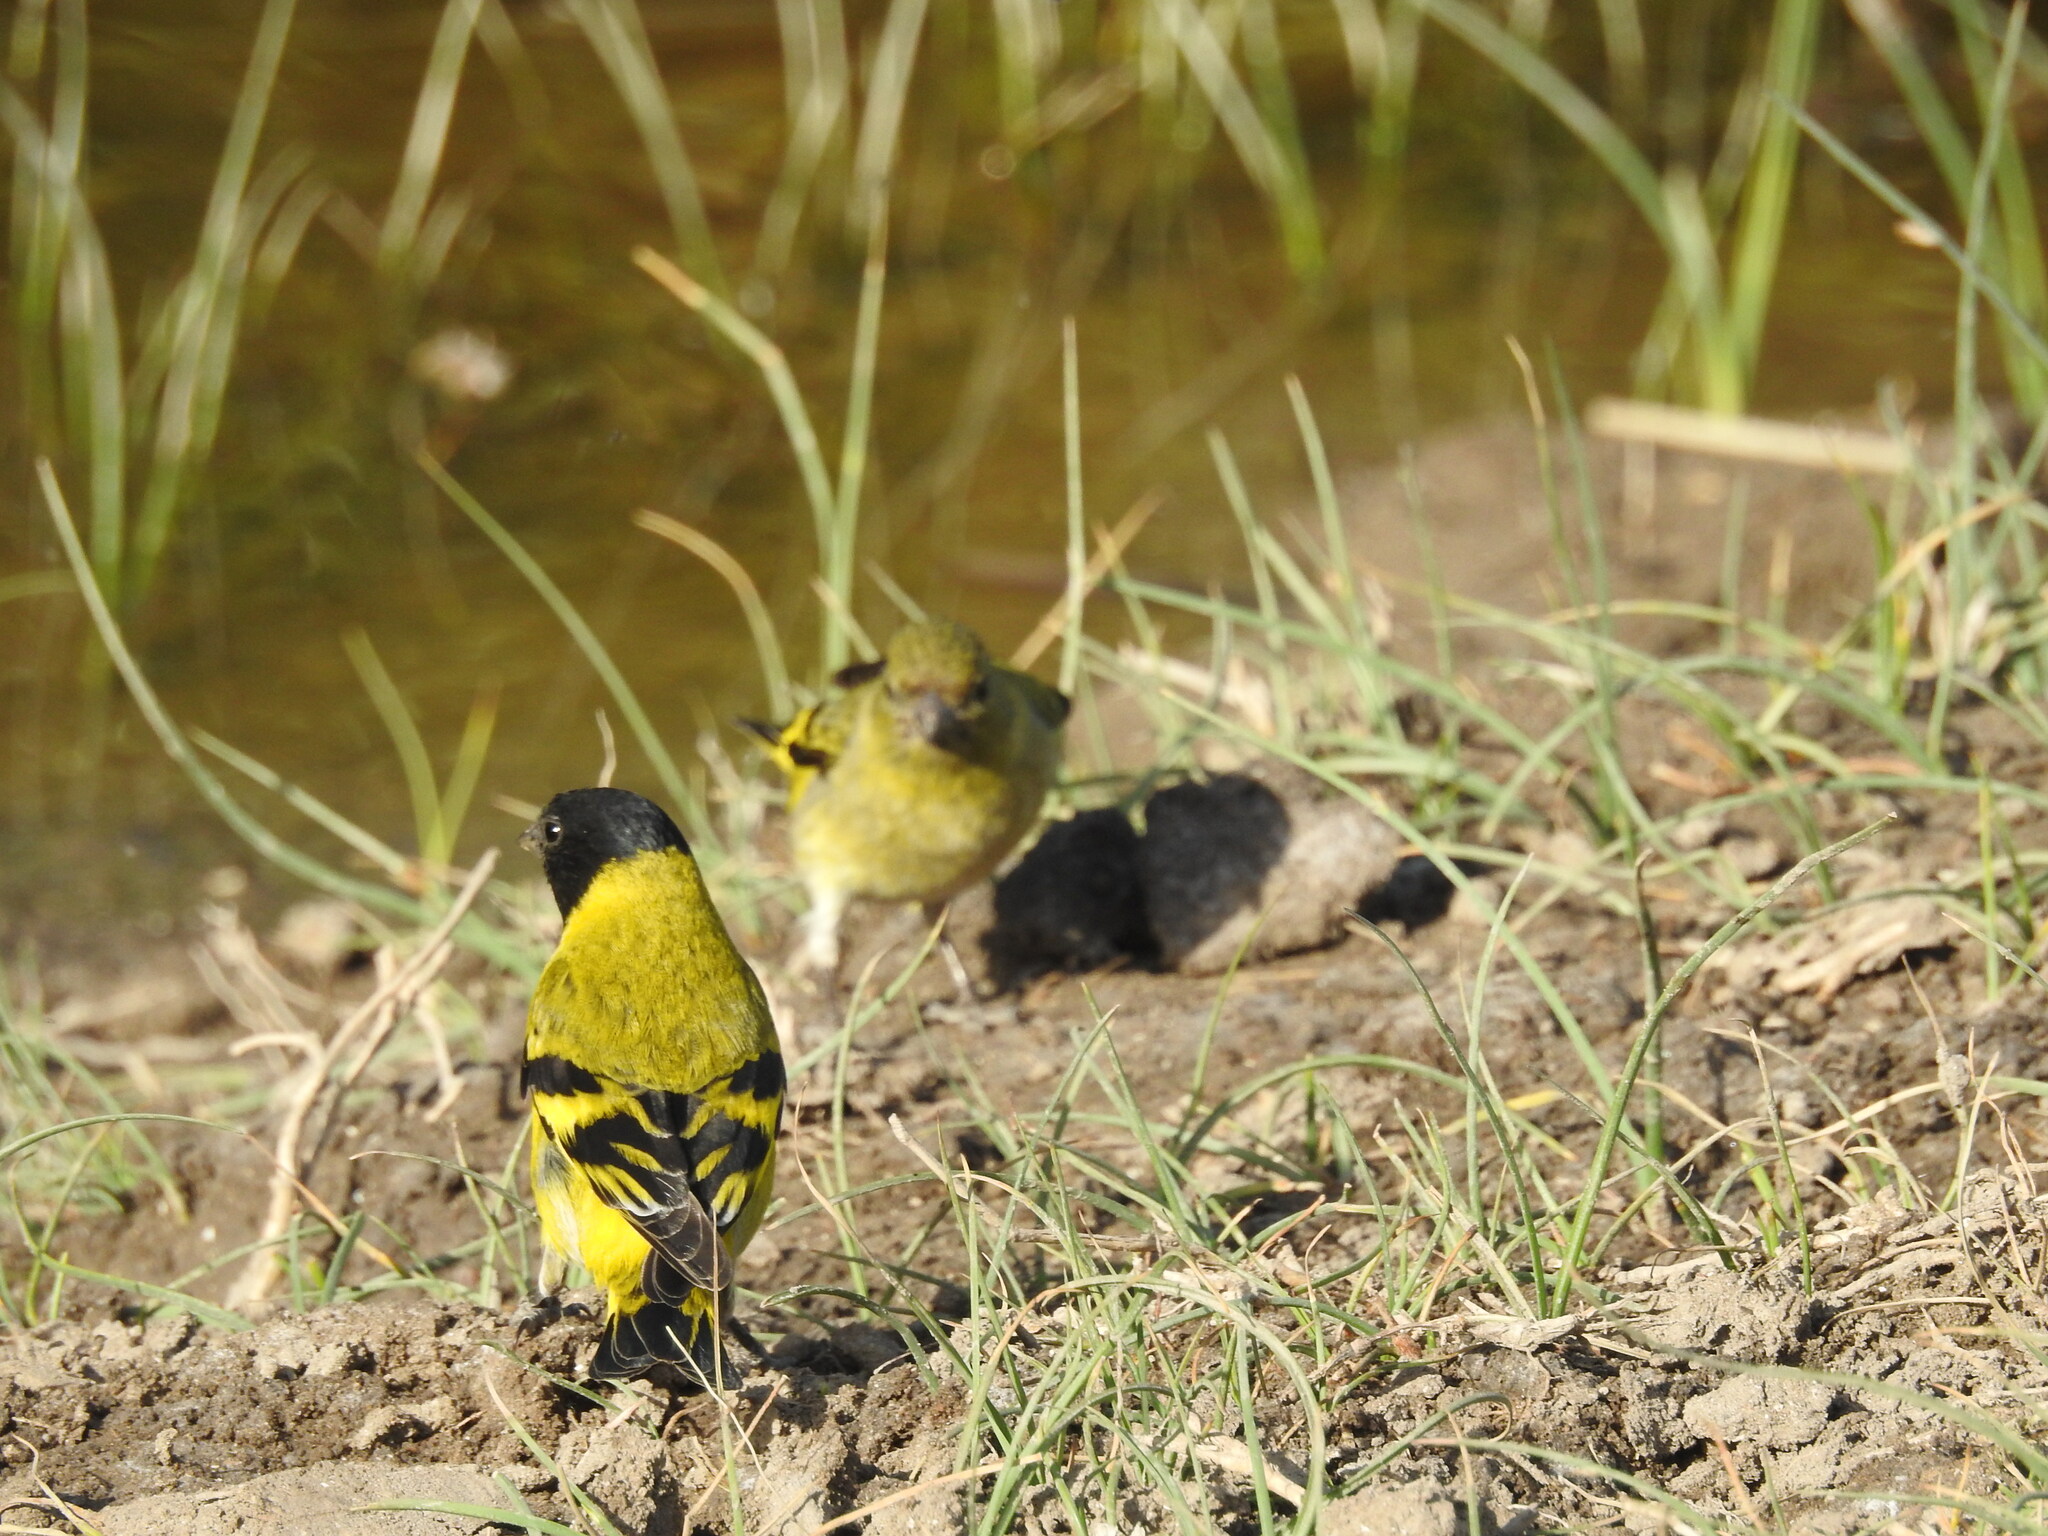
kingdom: Animalia
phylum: Chordata
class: Aves
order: Passeriformes
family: Fringillidae
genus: Spinus
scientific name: Spinus magellanicus
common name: Hooded siskin
